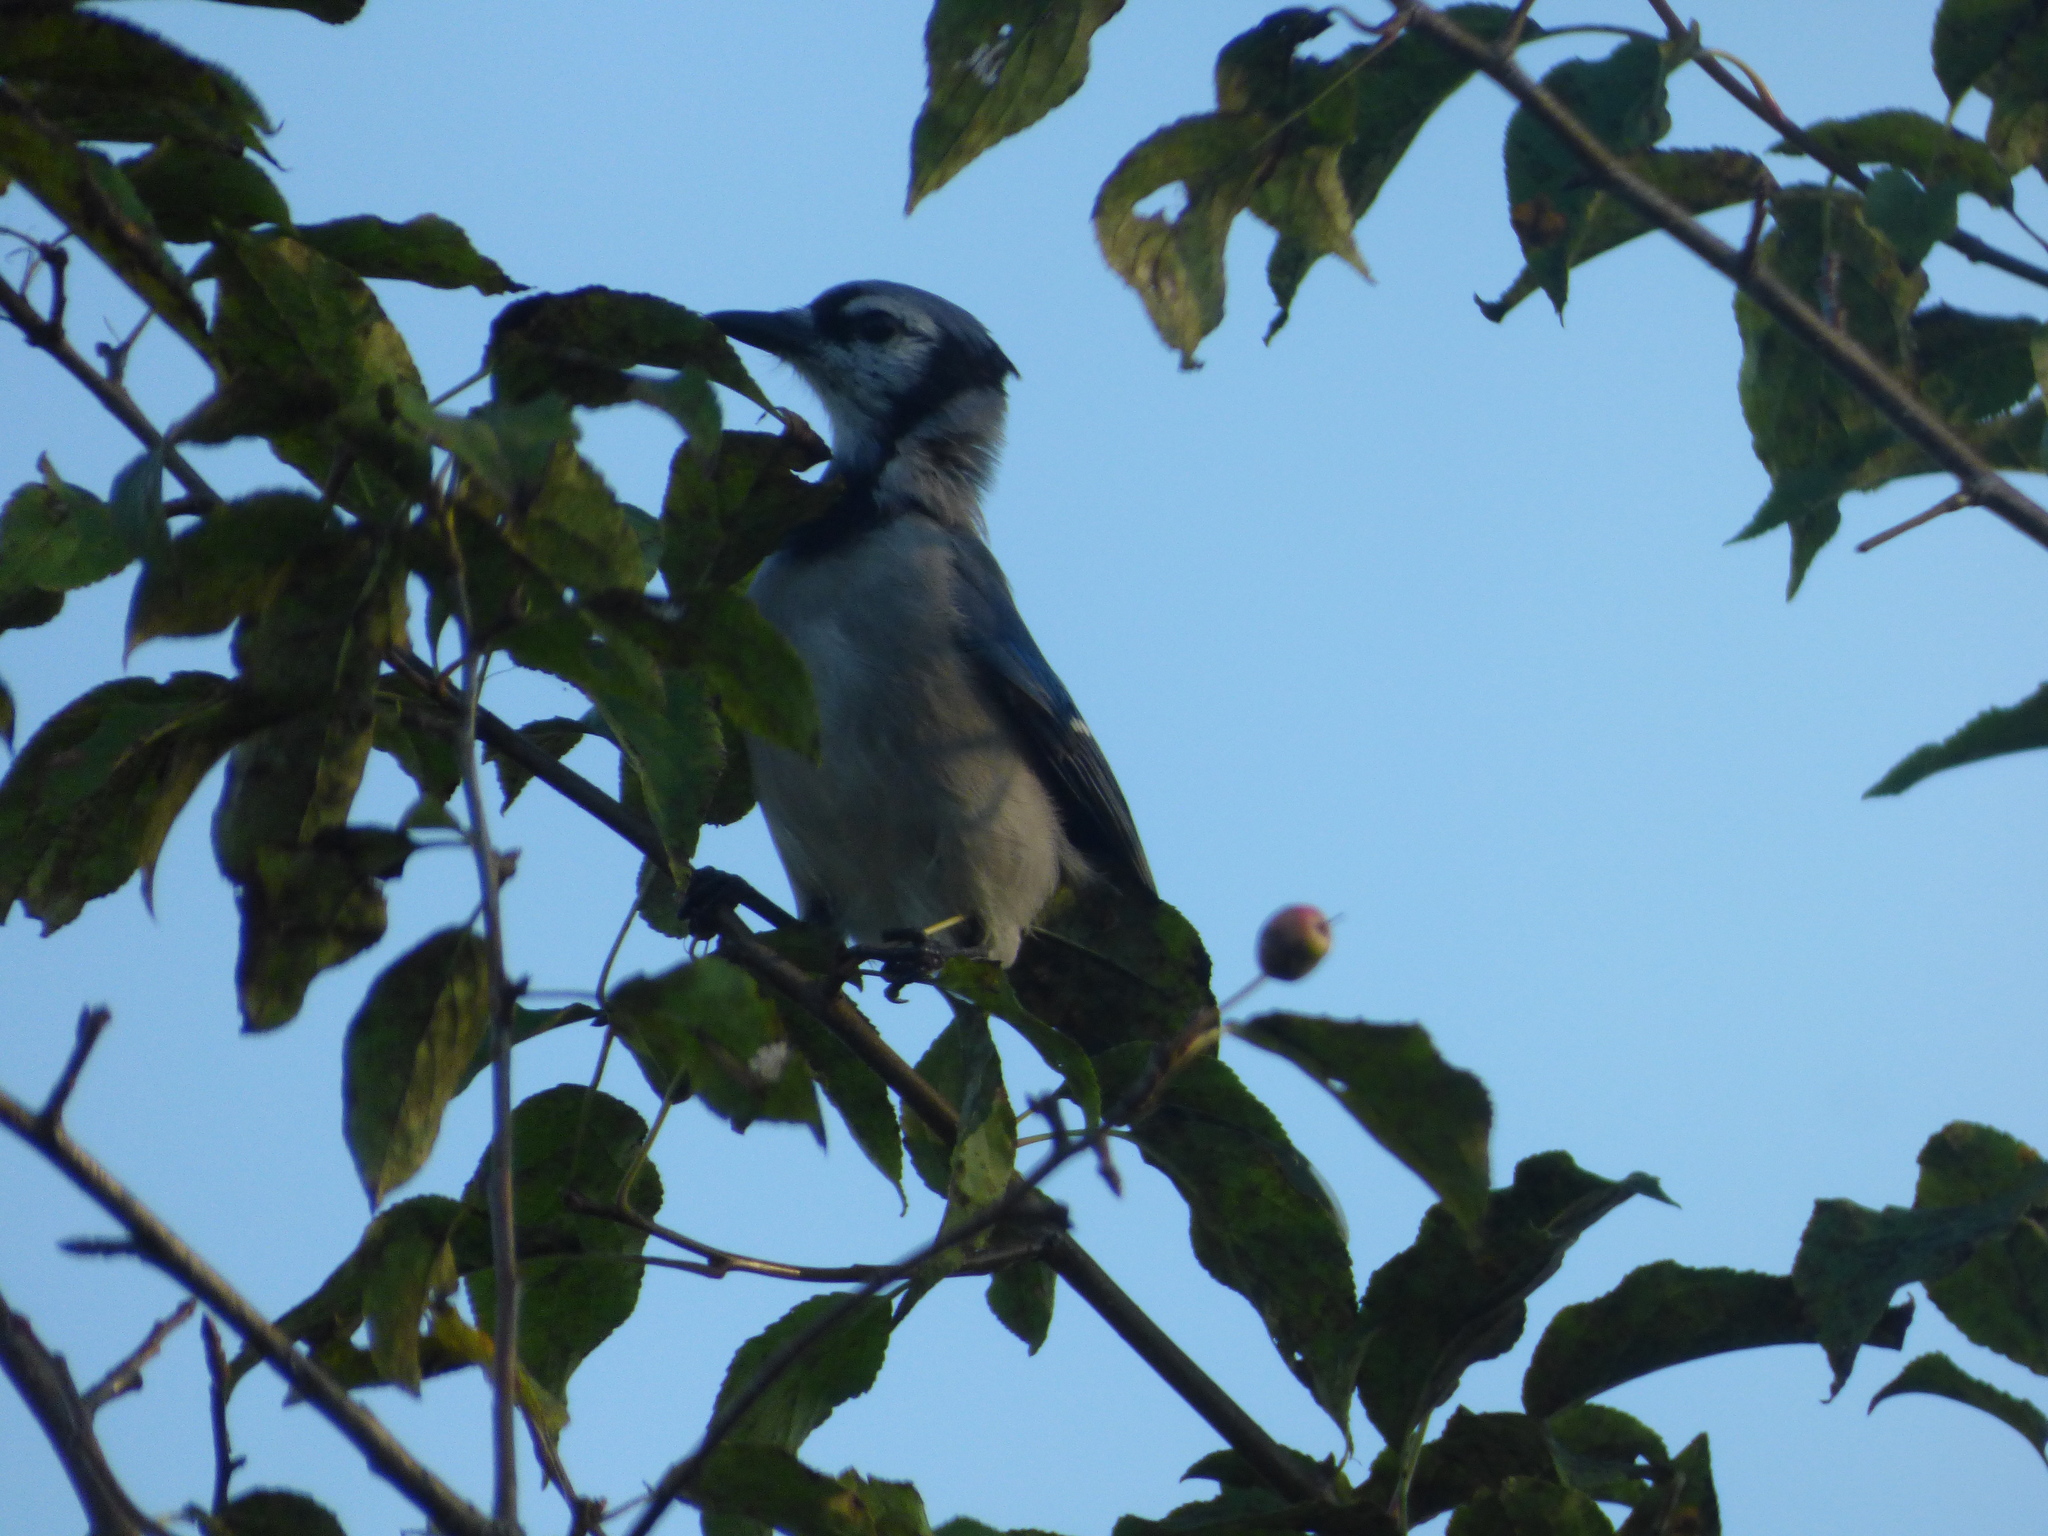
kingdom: Animalia
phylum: Chordata
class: Aves
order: Passeriformes
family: Corvidae
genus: Cyanocitta
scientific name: Cyanocitta cristata
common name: Blue jay
